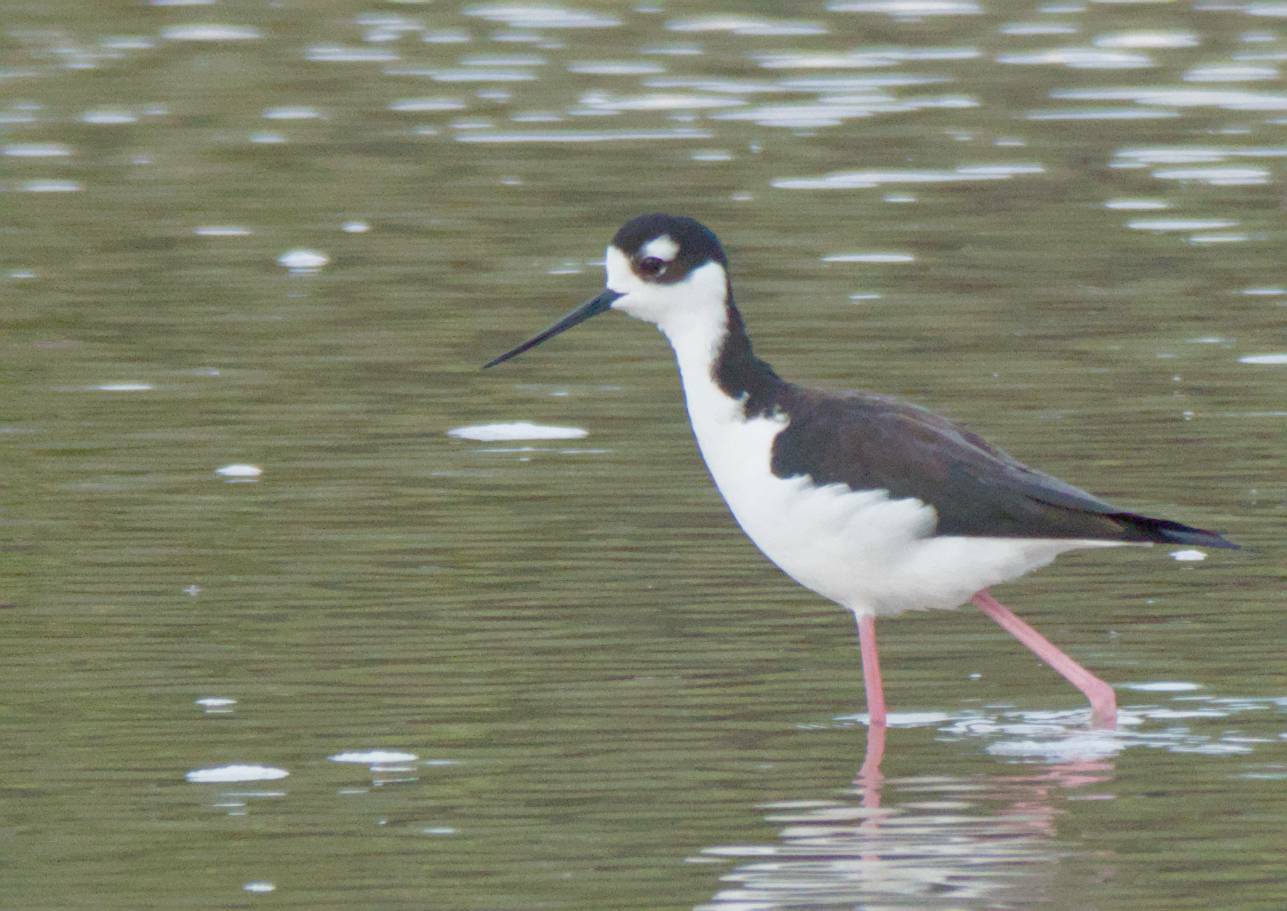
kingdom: Animalia
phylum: Chordata
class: Aves
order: Charadriiformes
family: Recurvirostridae
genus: Himantopus
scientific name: Himantopus mexicanus
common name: Black-necked stilt
